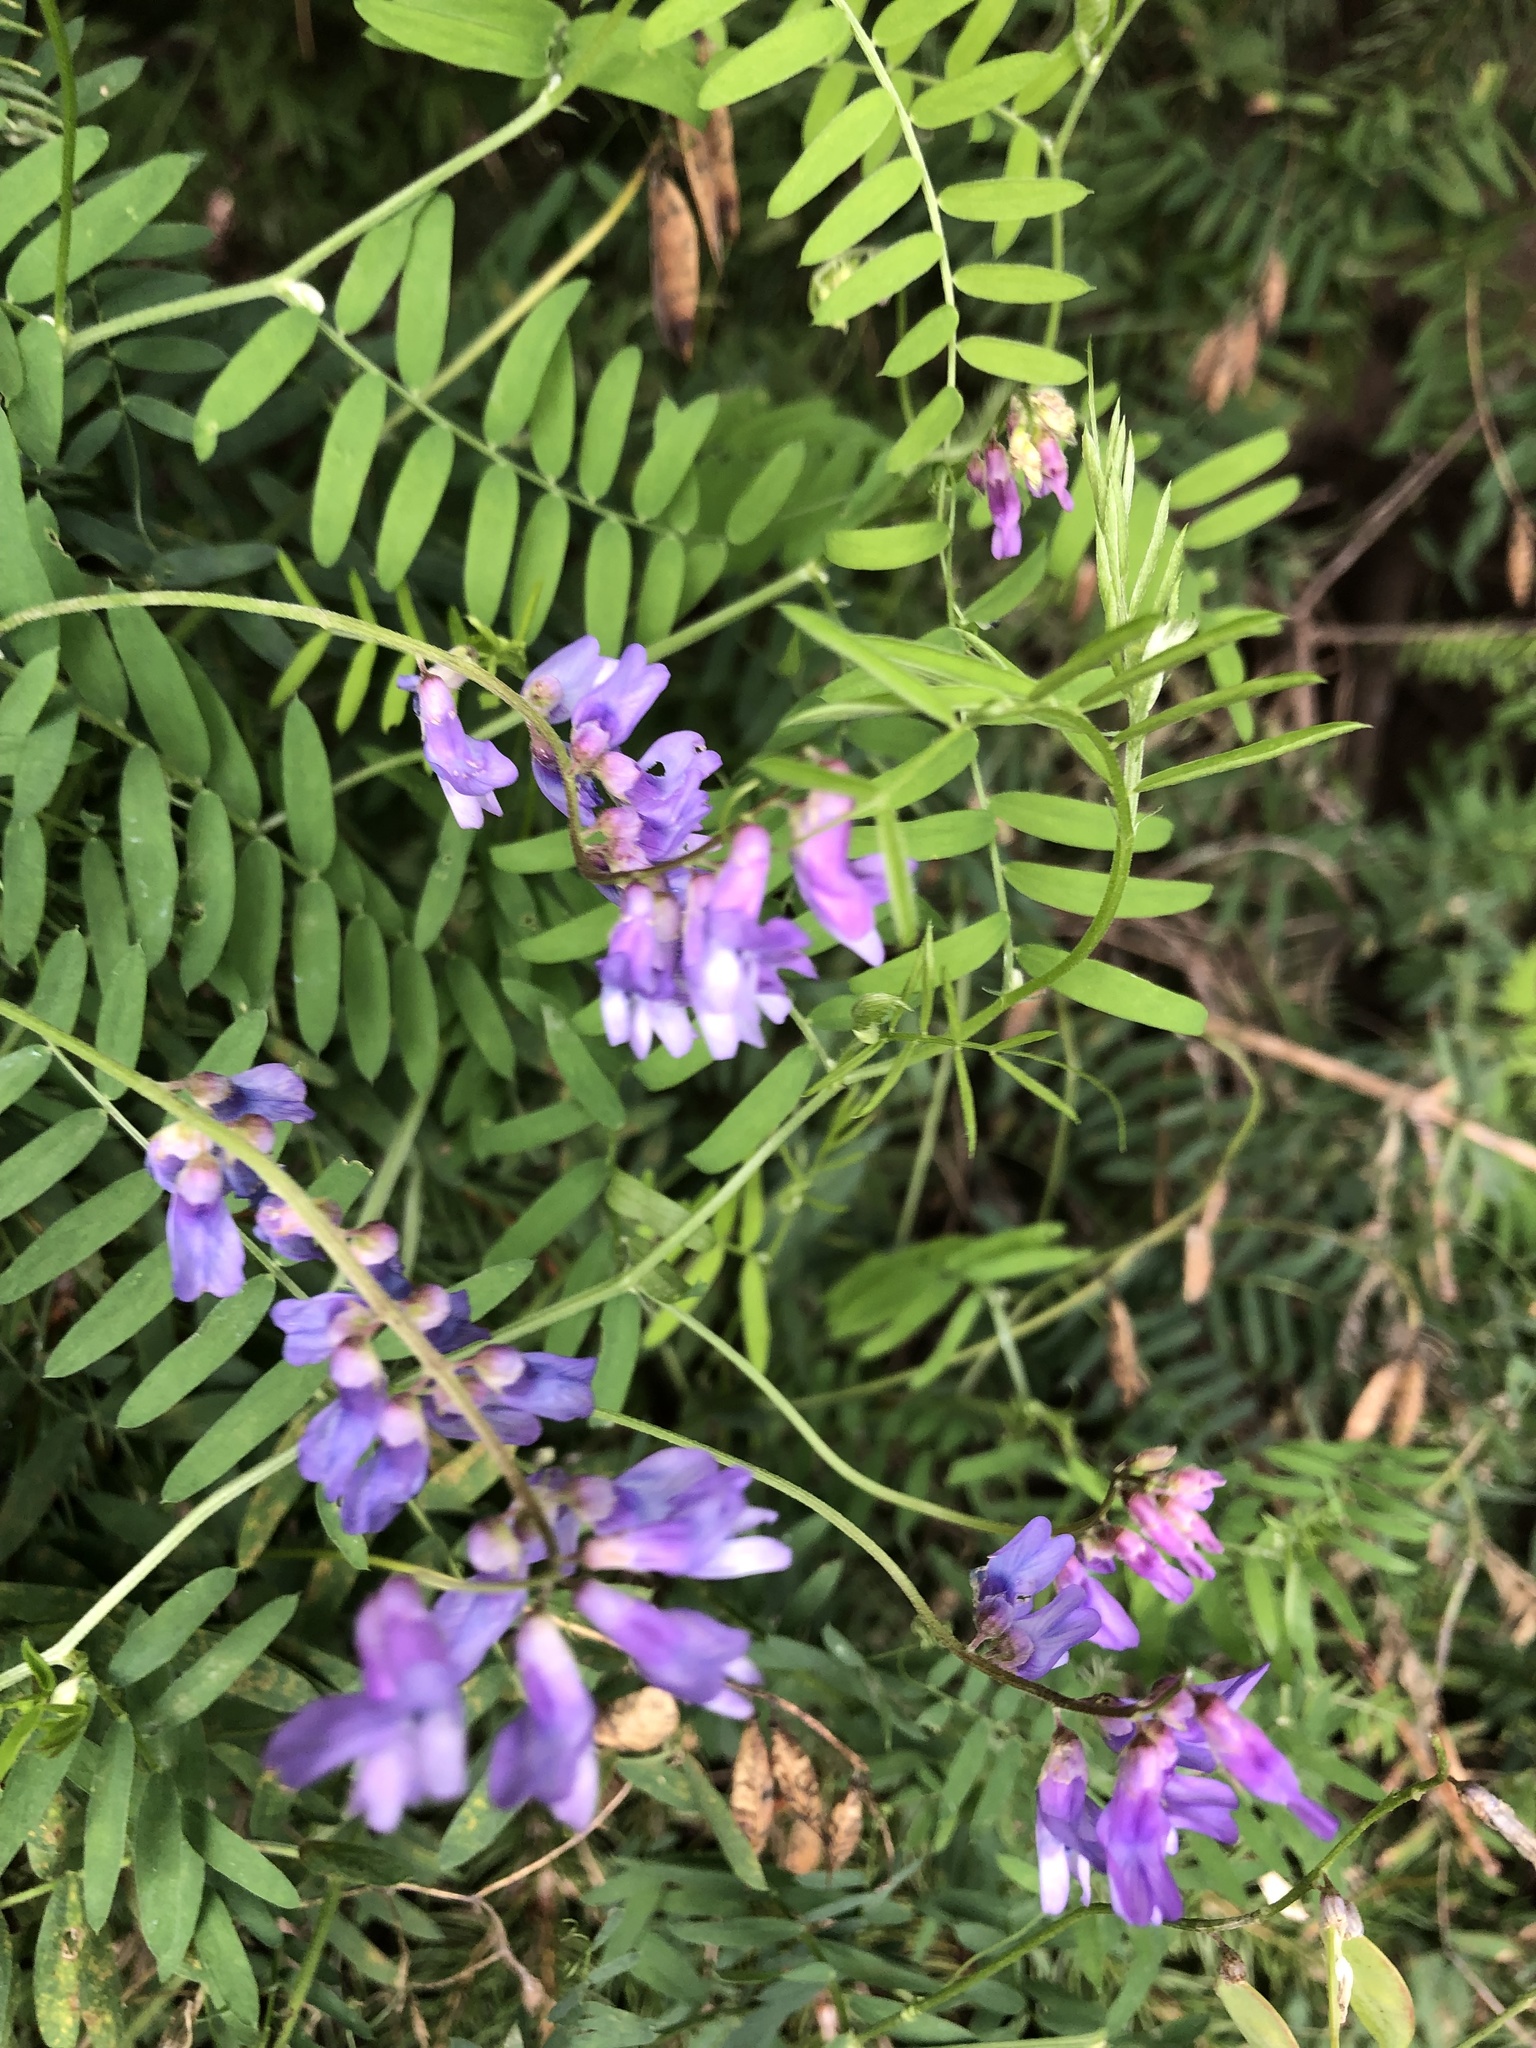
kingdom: Plantae
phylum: Tracheophyta
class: Magnoliopsida
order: Fabales
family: Fabaceae
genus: Vicia
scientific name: Vicia cracca
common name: Bird vetch
